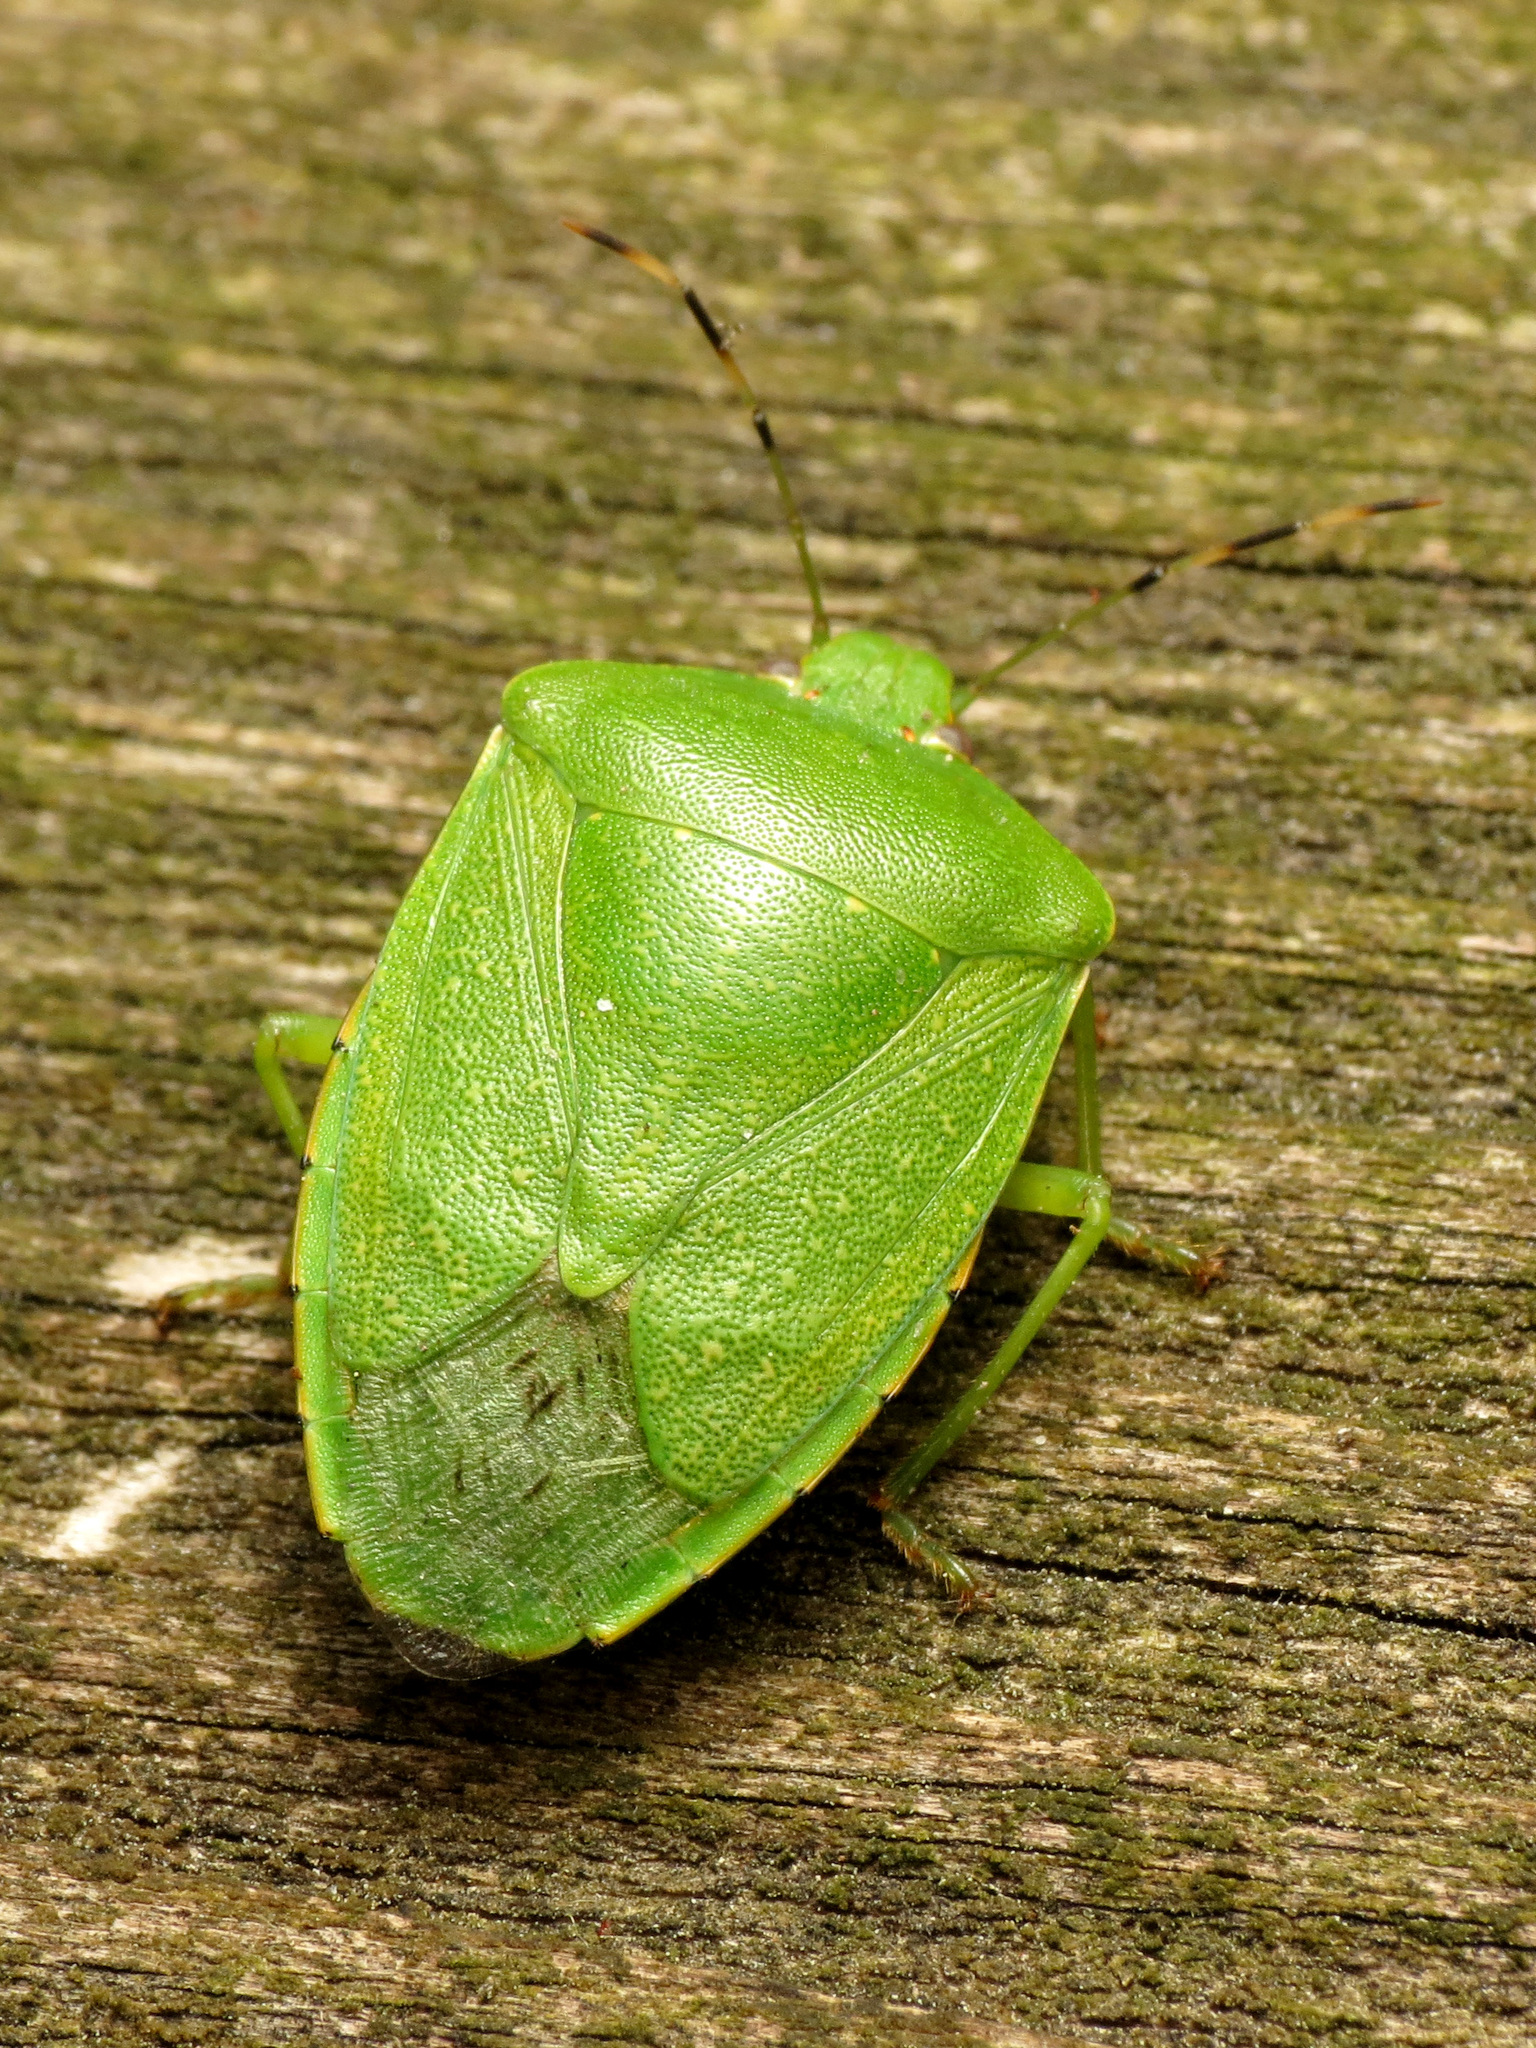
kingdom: Animalia
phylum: Arthropoda
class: Insecta
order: Hemiptera
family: Pentatomidae
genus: Chinavia
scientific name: Chinavia hilaris
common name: Green stink bug
